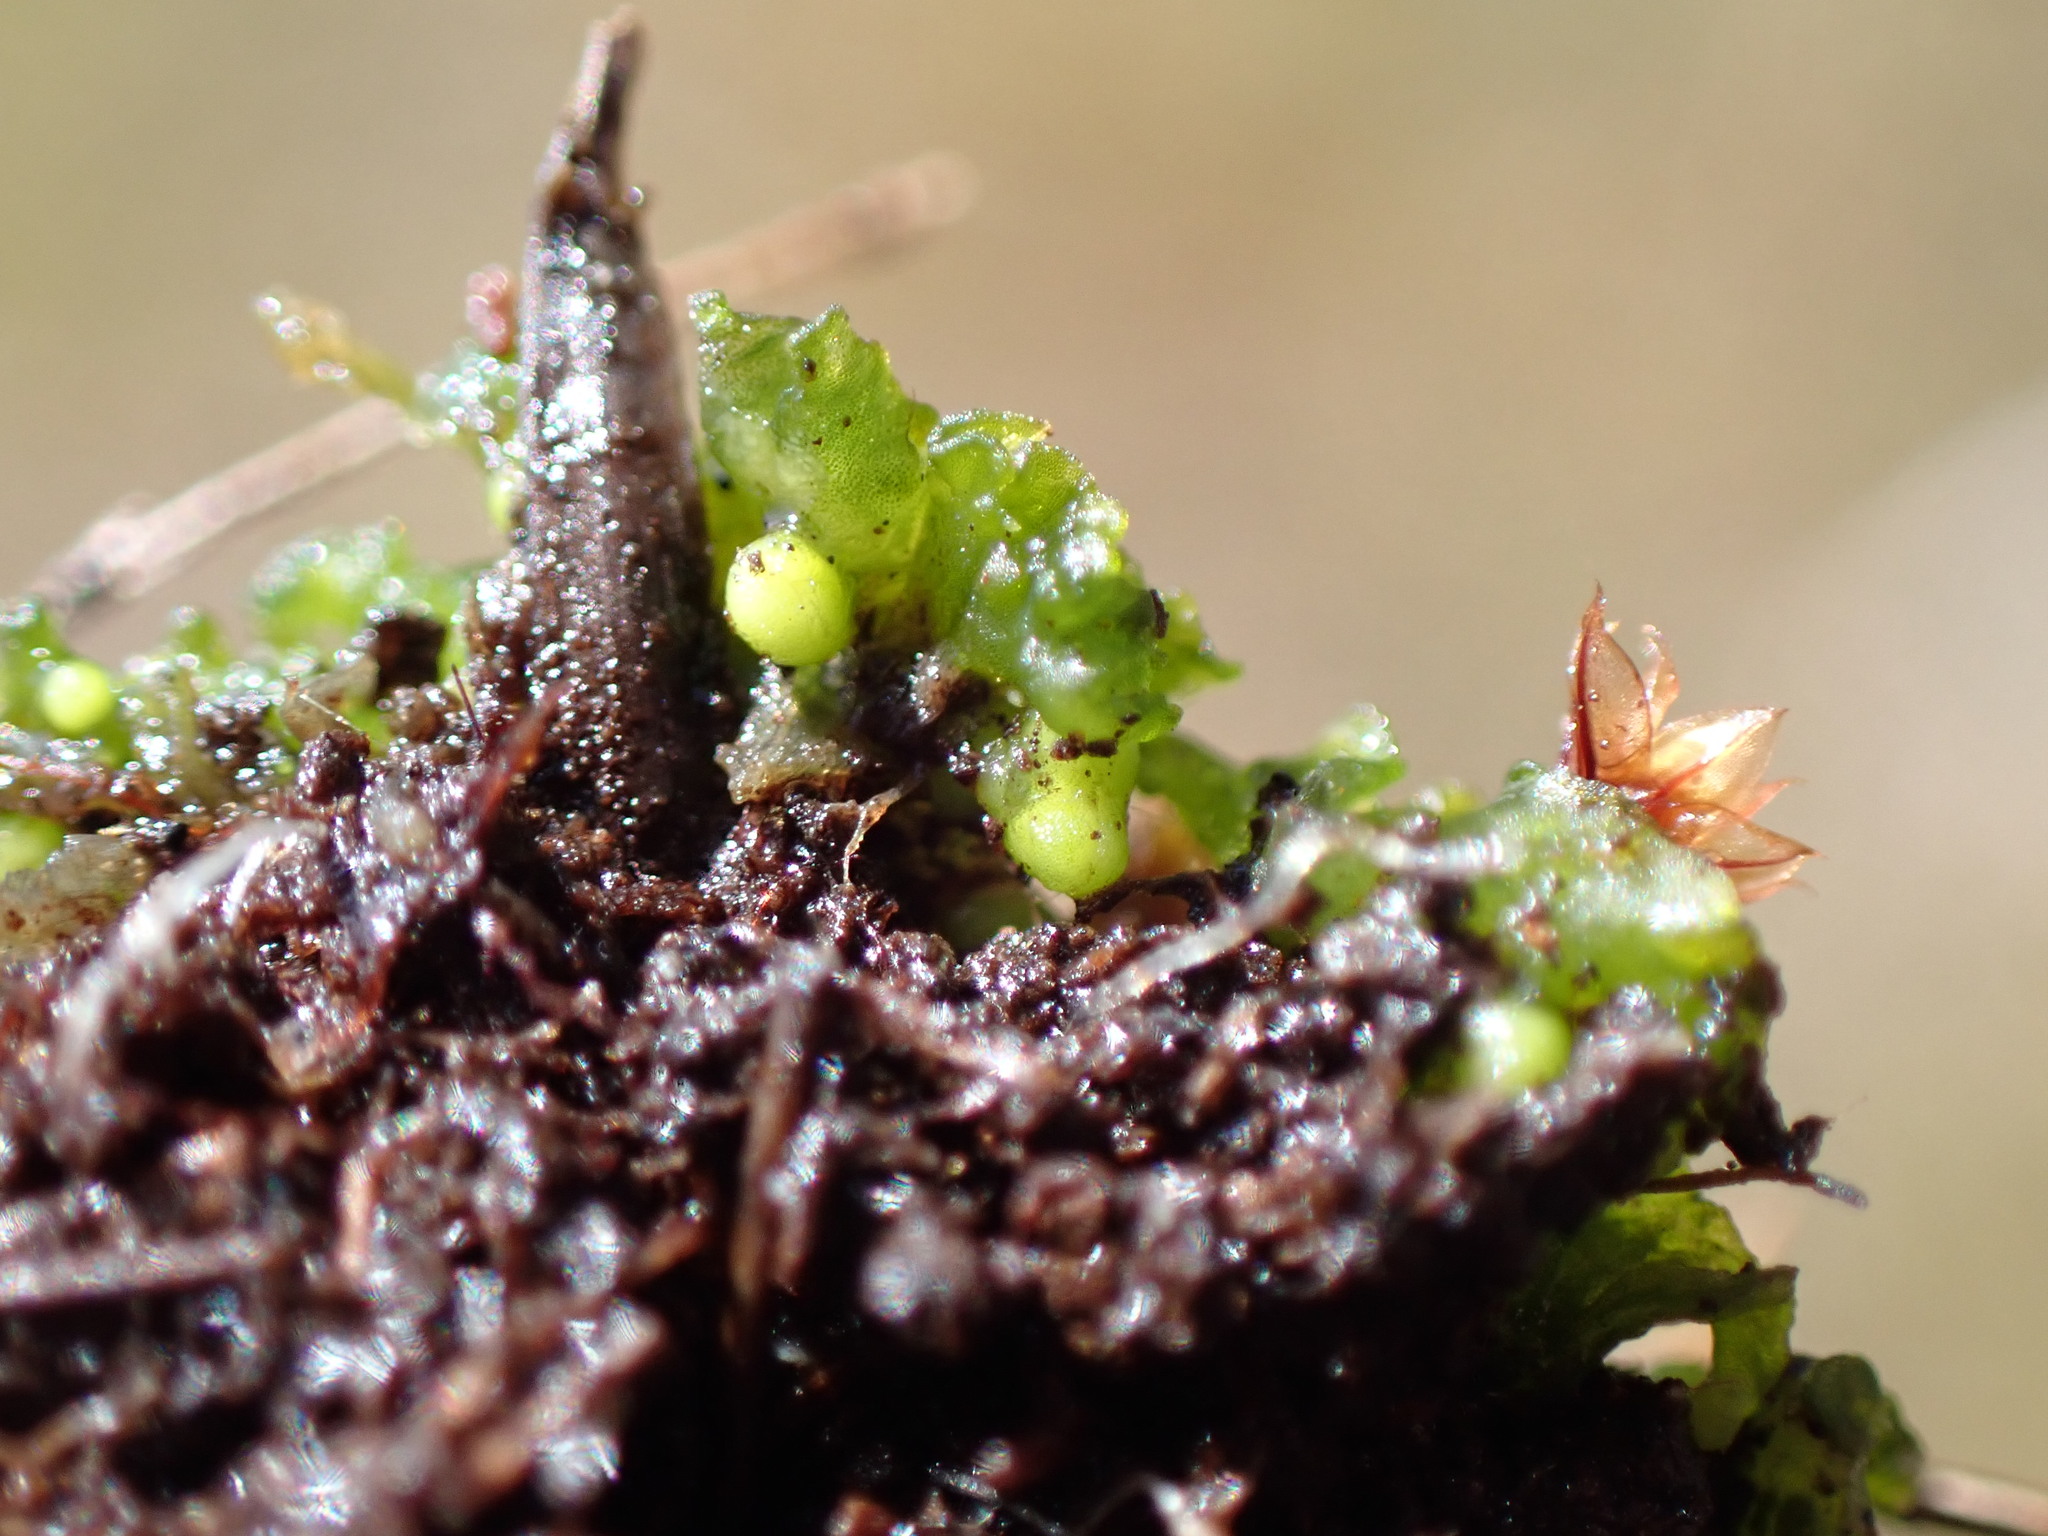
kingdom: Plantae
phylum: Anthocerotophyta
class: Anthocerotopsida
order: Phymatocerotales
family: Phymatocerotaceae
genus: Phymatoceros
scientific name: Phymatoceros bulbiculosus
